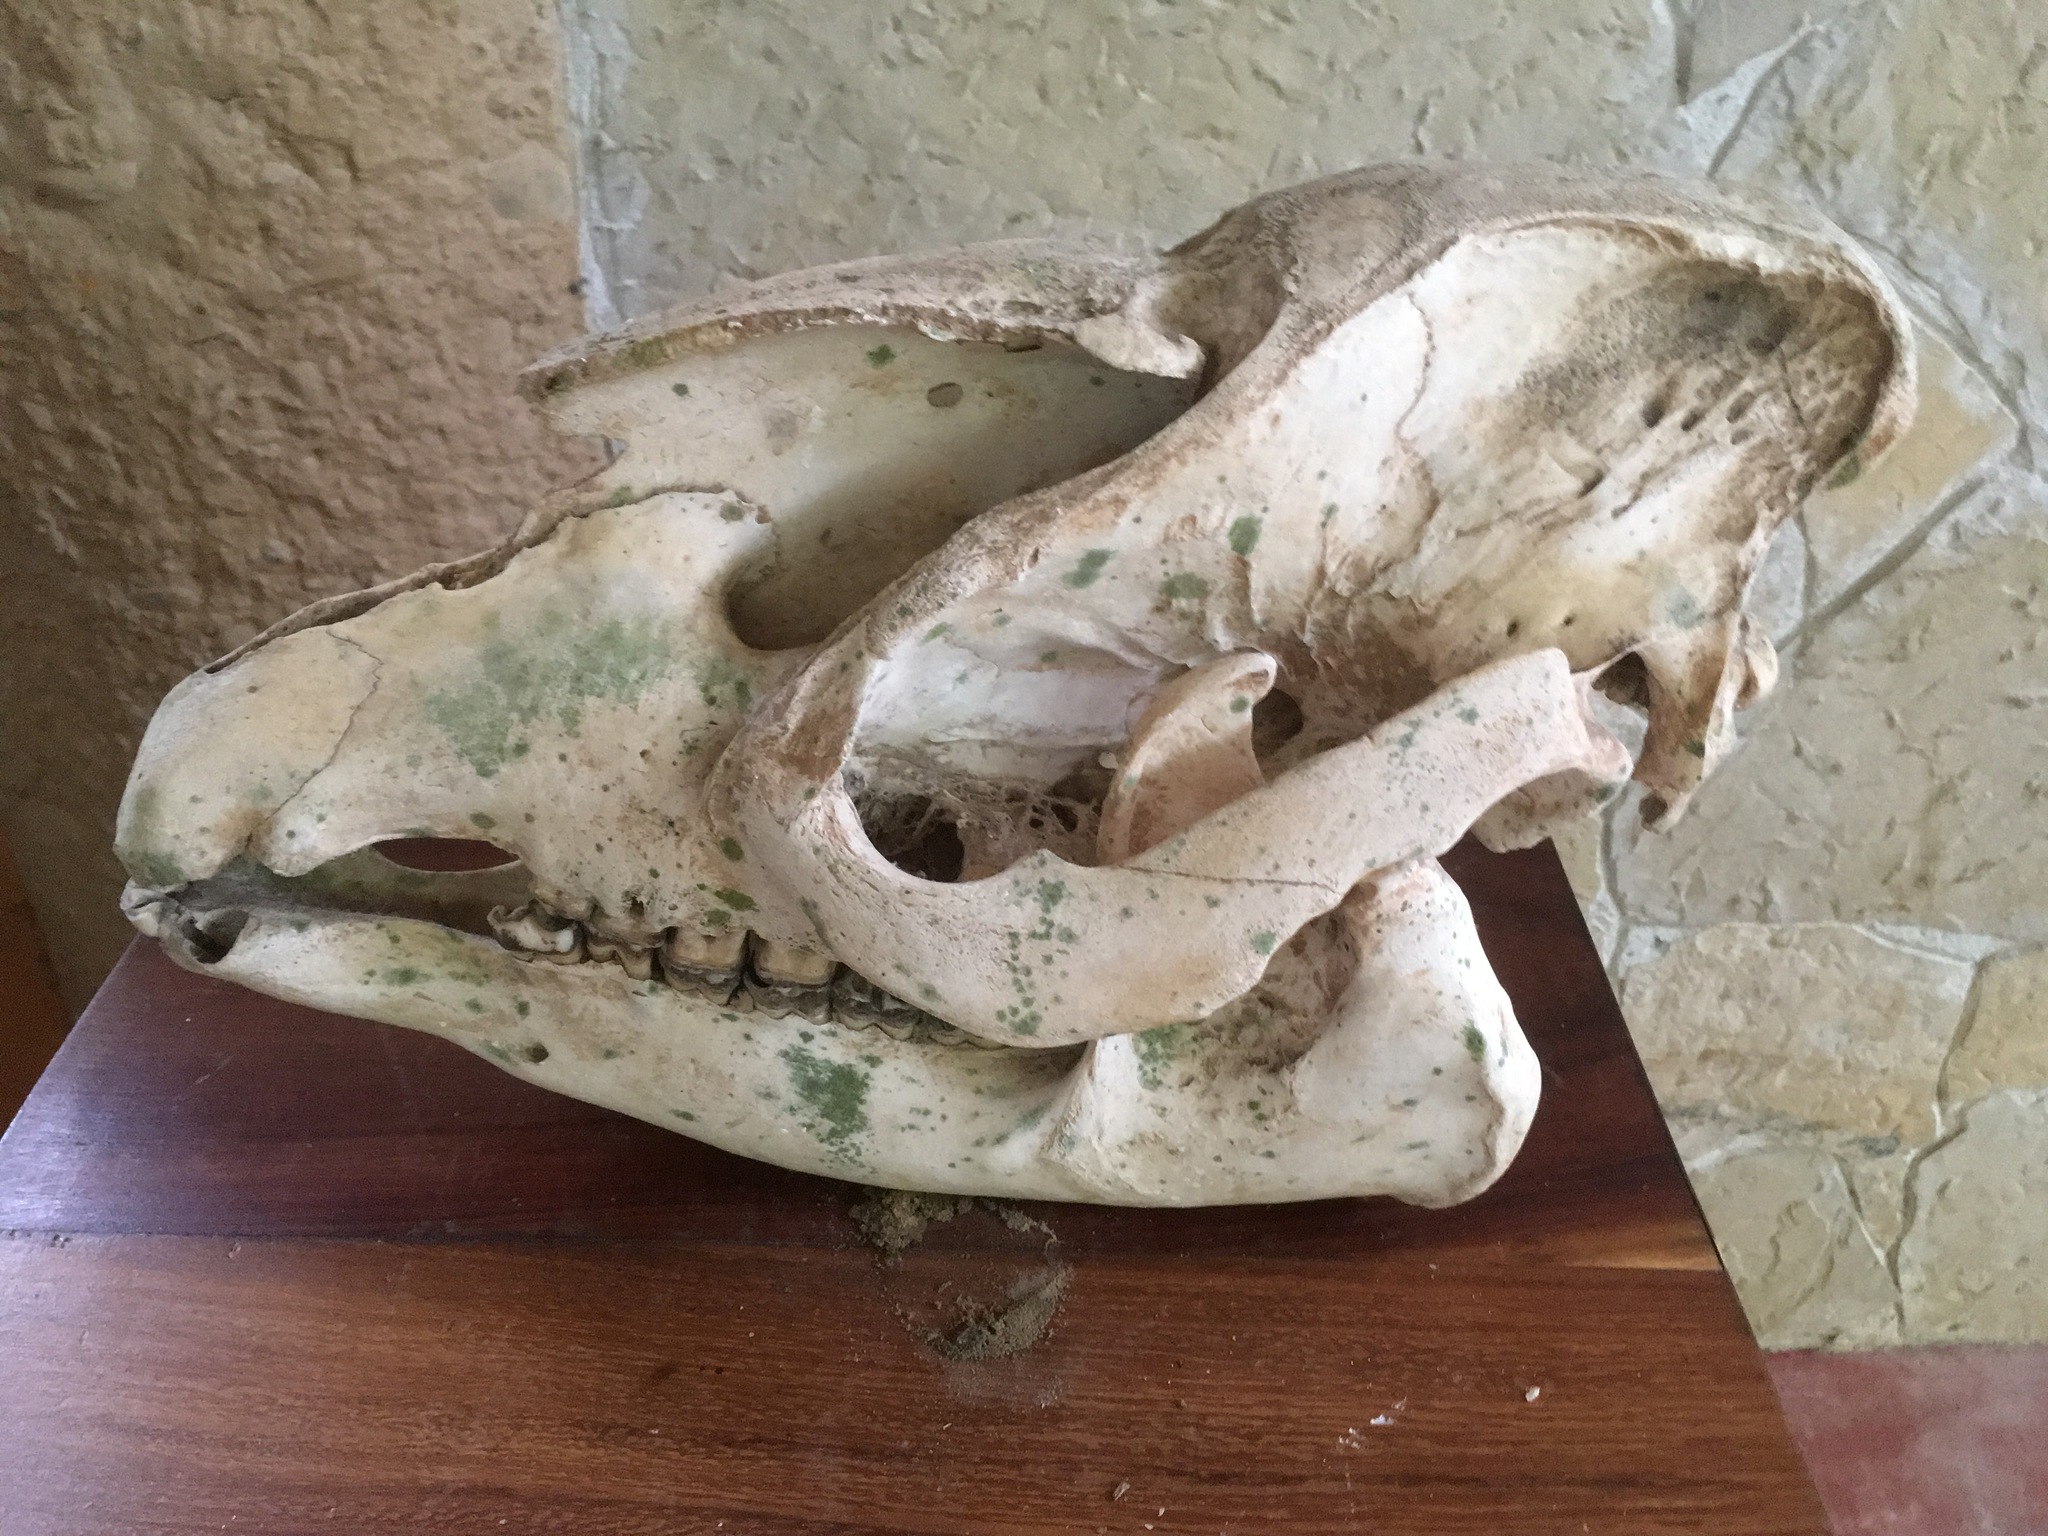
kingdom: Animalia
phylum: Chordata
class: Mammalia
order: Perissodactyla
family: Tapiridae
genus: Tapirella
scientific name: Tapirella bairdii
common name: Baird's tapir
